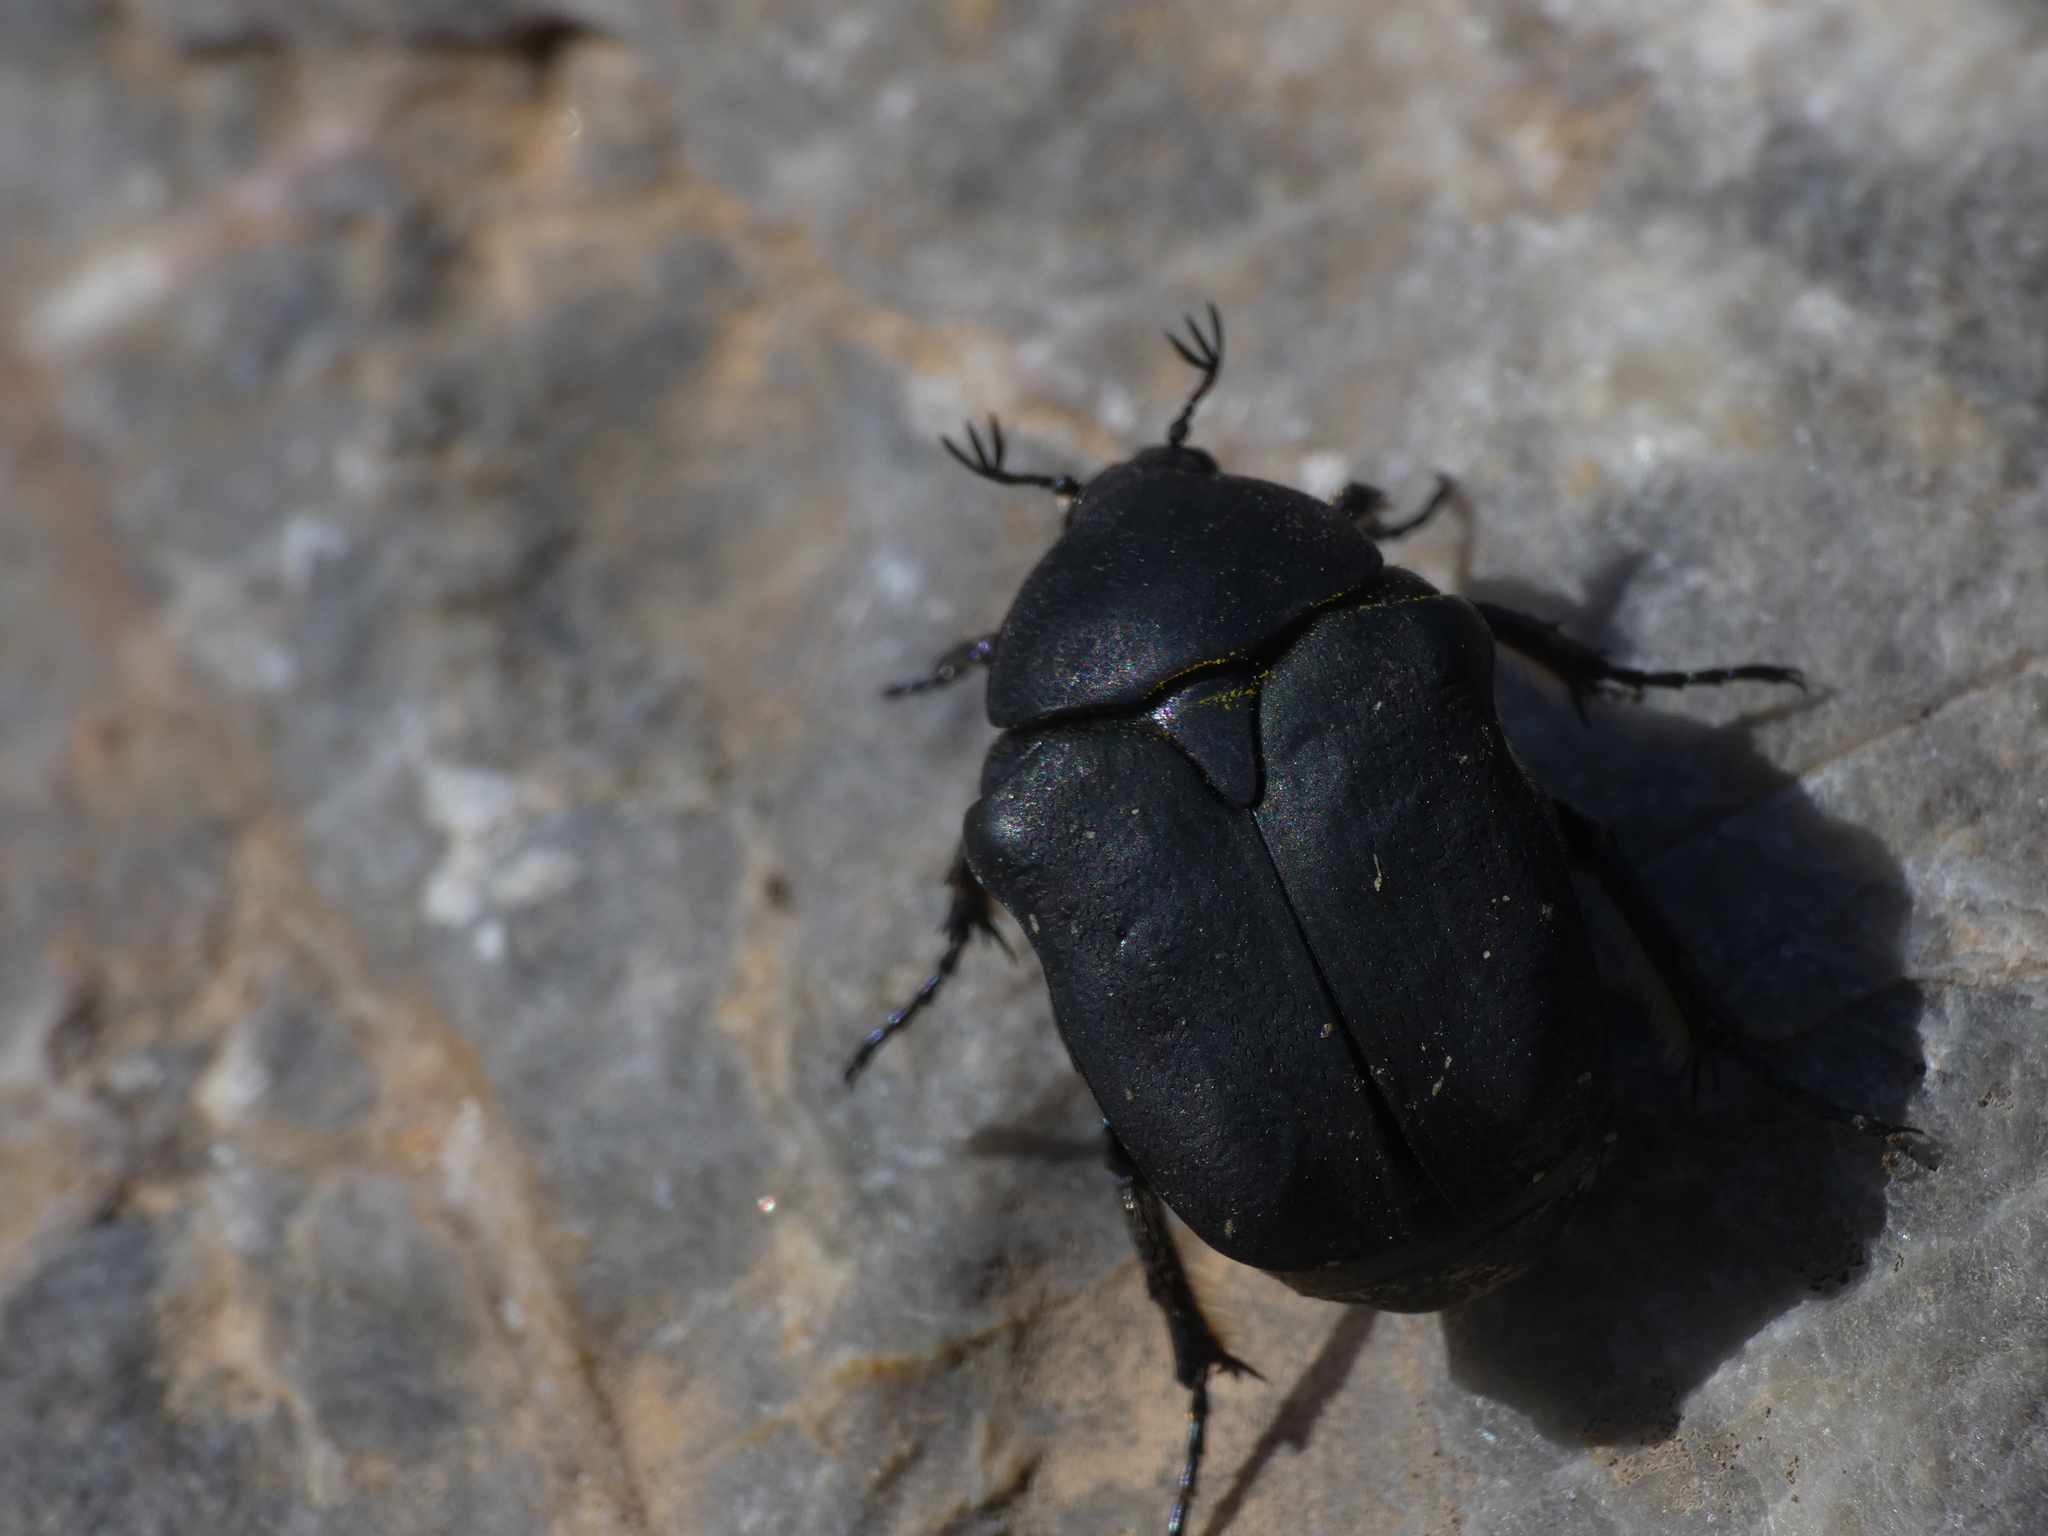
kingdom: Animalia
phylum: Arthropoda
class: Insecta
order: Coleoptera
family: Scarabaeidae
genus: Protaetia
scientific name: Protaetia afflicta
